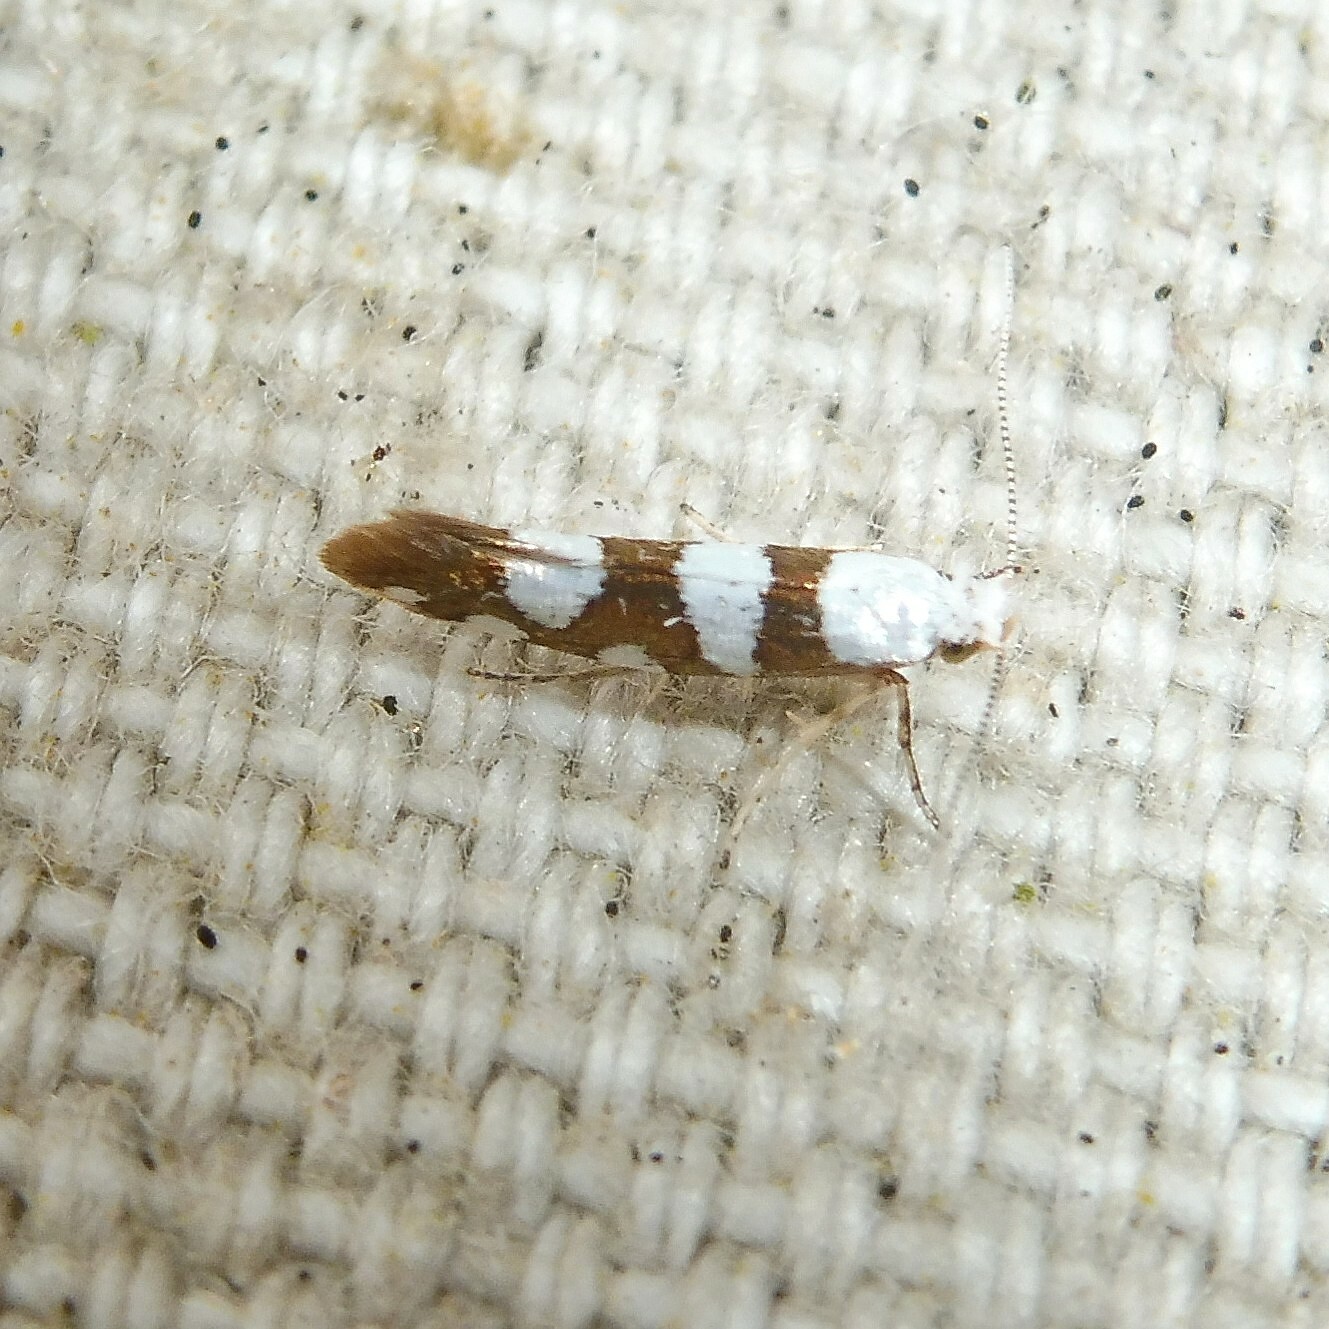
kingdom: Animalia
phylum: Arthropoda
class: Insecta
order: Lepidoptera
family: Argyresthiidae
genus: Argyresthia
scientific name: Argyresthia brockeella
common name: Gold-ribbon argent
